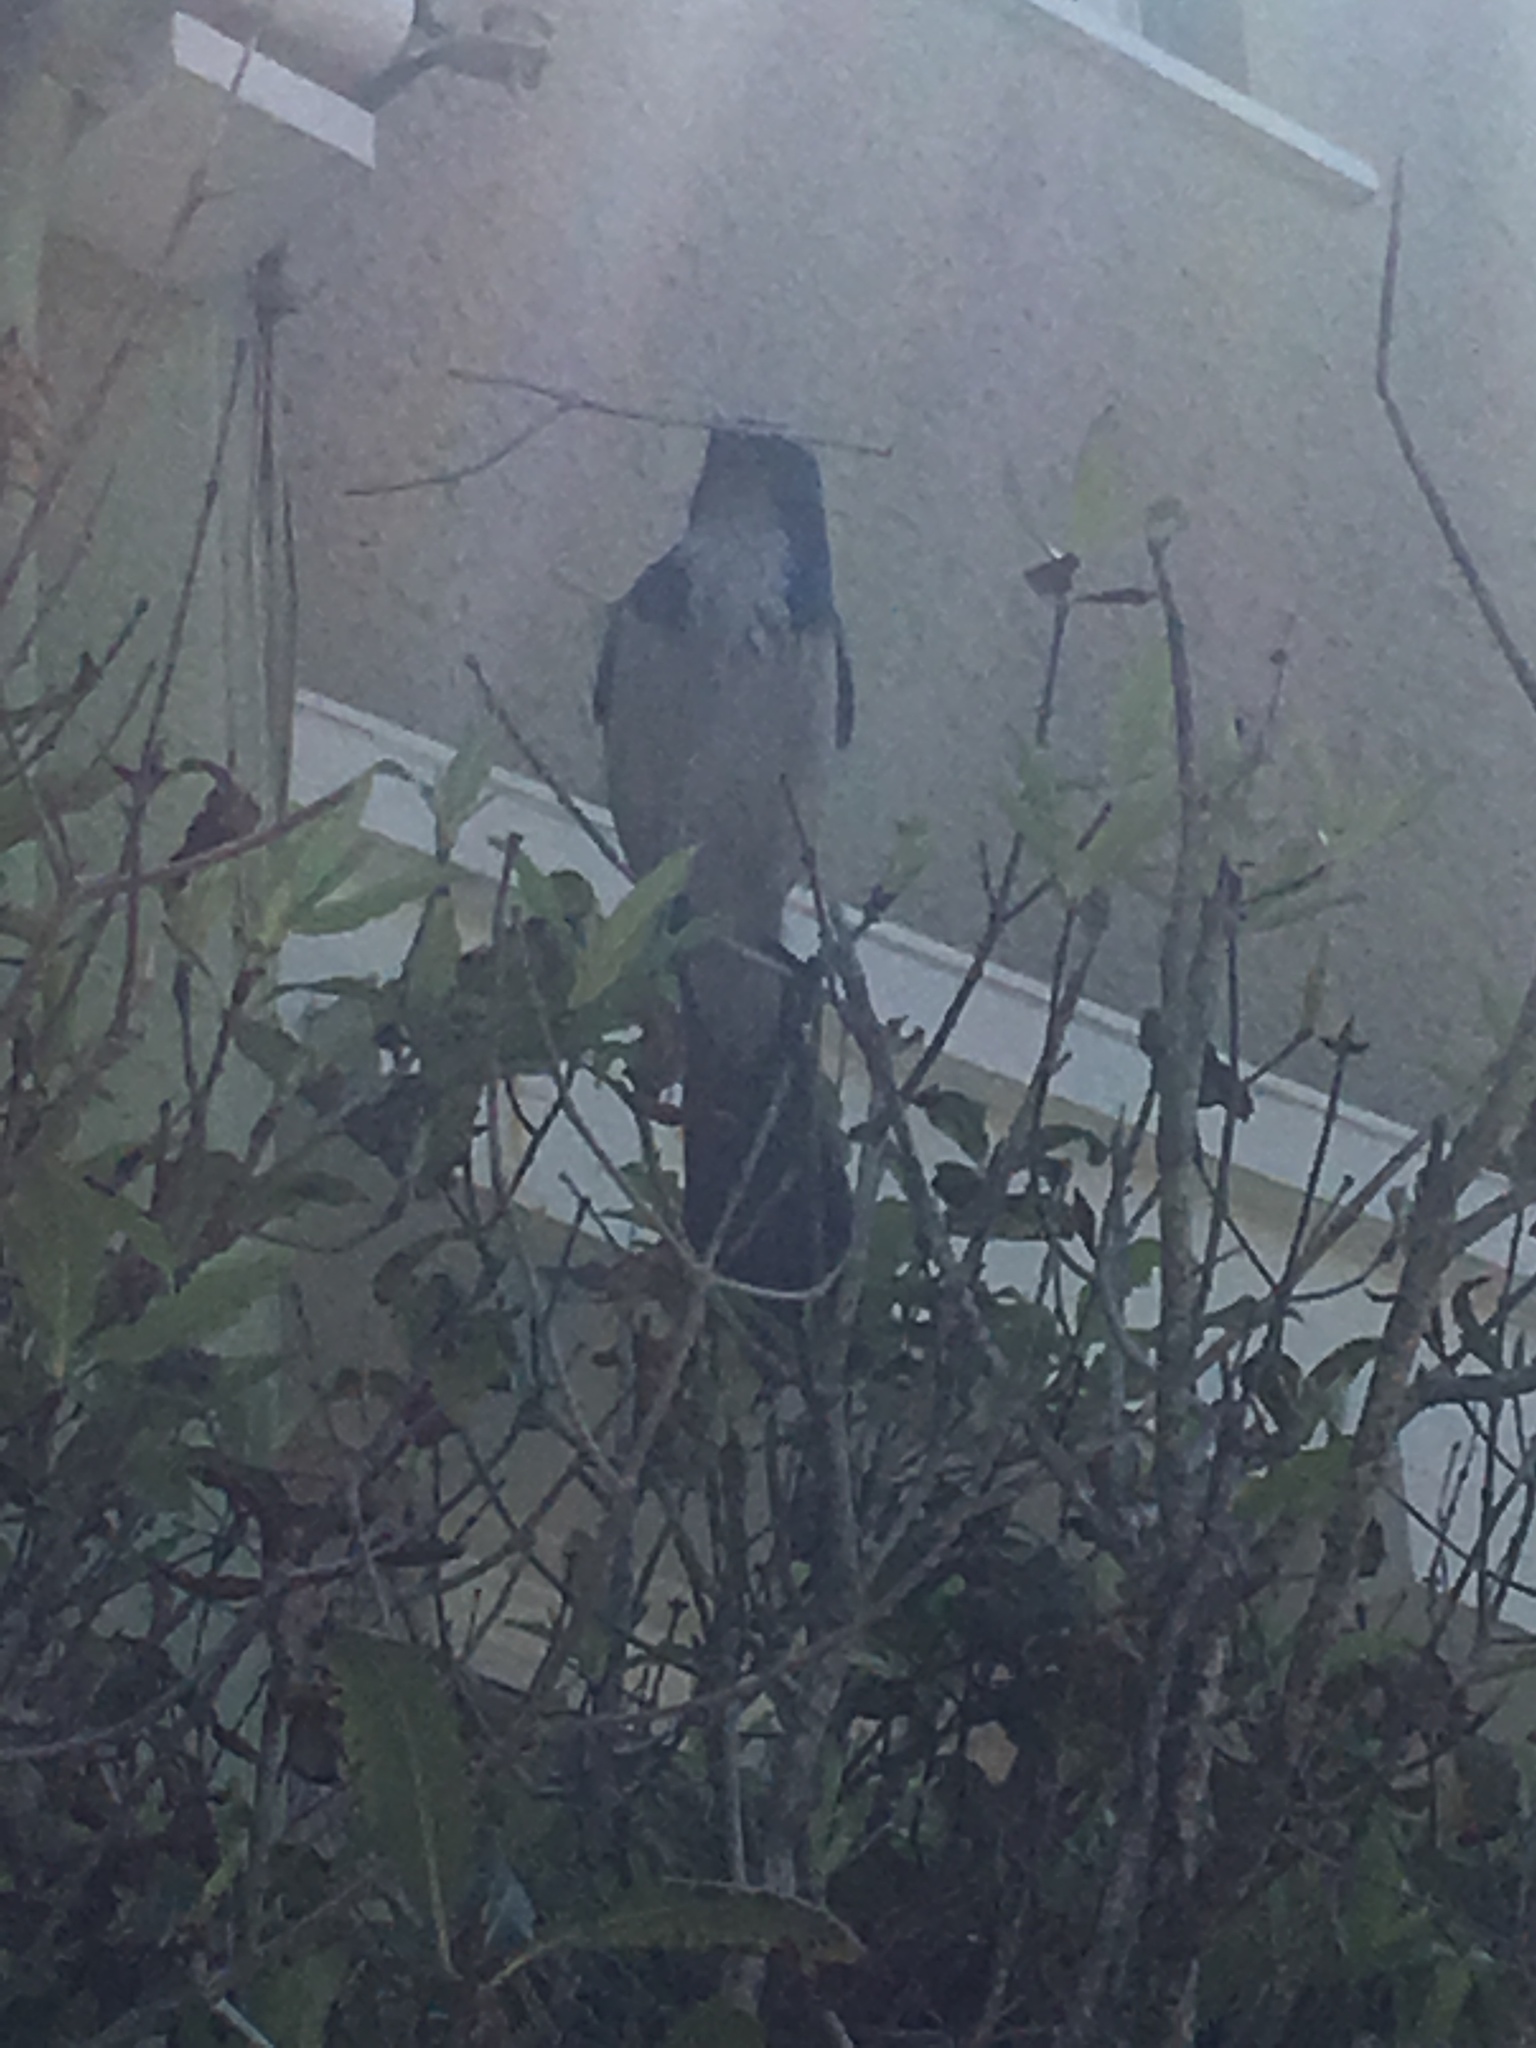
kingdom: Animalia
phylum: Chordata
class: Aves
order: Passeriformes
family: Corvidae
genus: Aphelocoma
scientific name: Aphelocoma californica
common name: California scrub-jay
